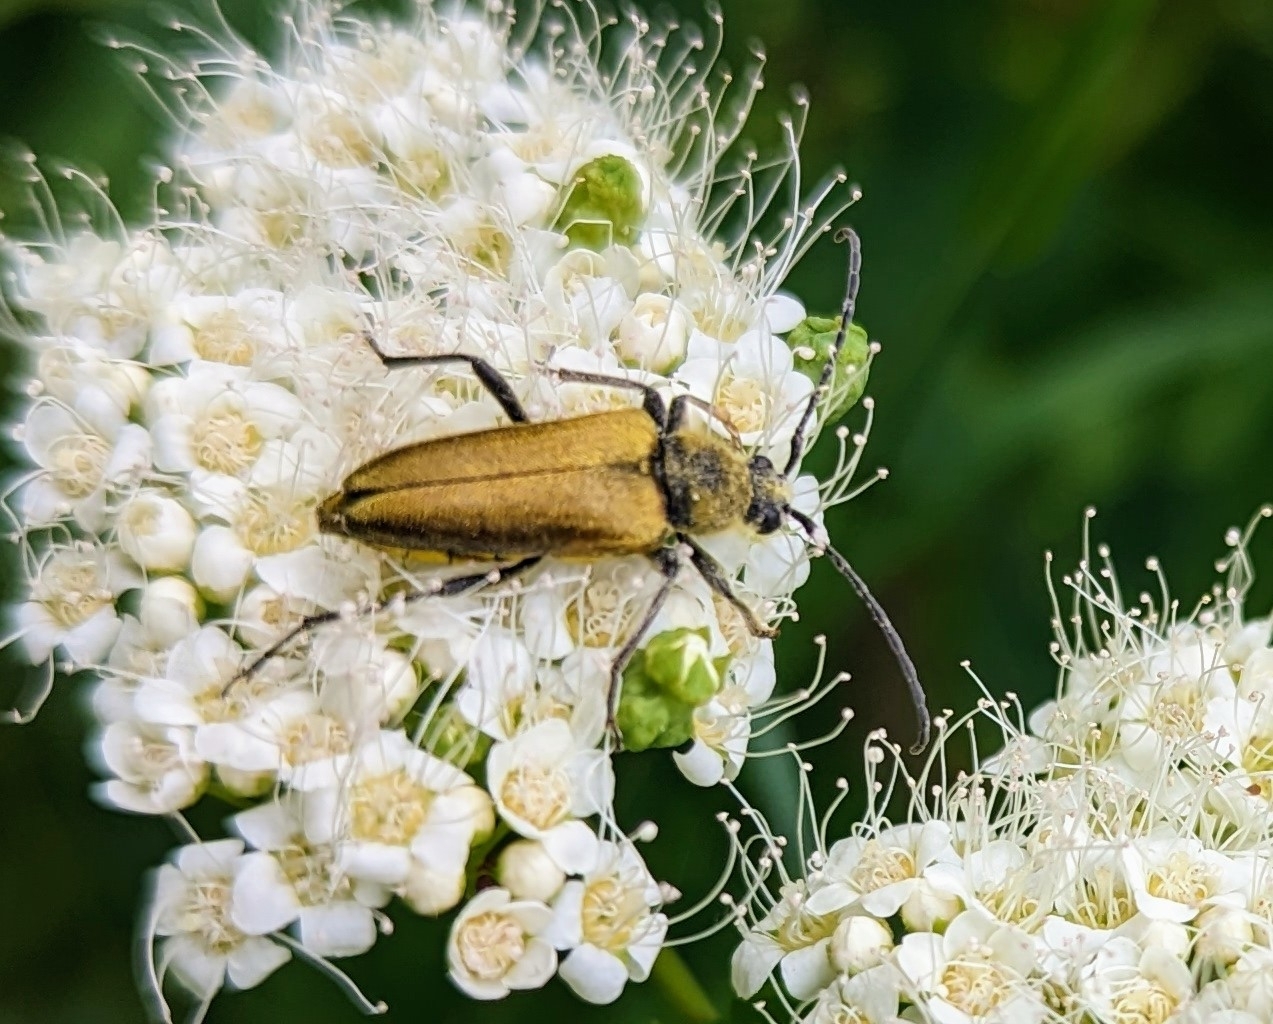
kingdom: Animalia
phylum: Arthropoda
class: Insecta
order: Coleoptera
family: Cerambycidae
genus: Cosmosalia
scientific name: Cosmosalia chrysocoma
